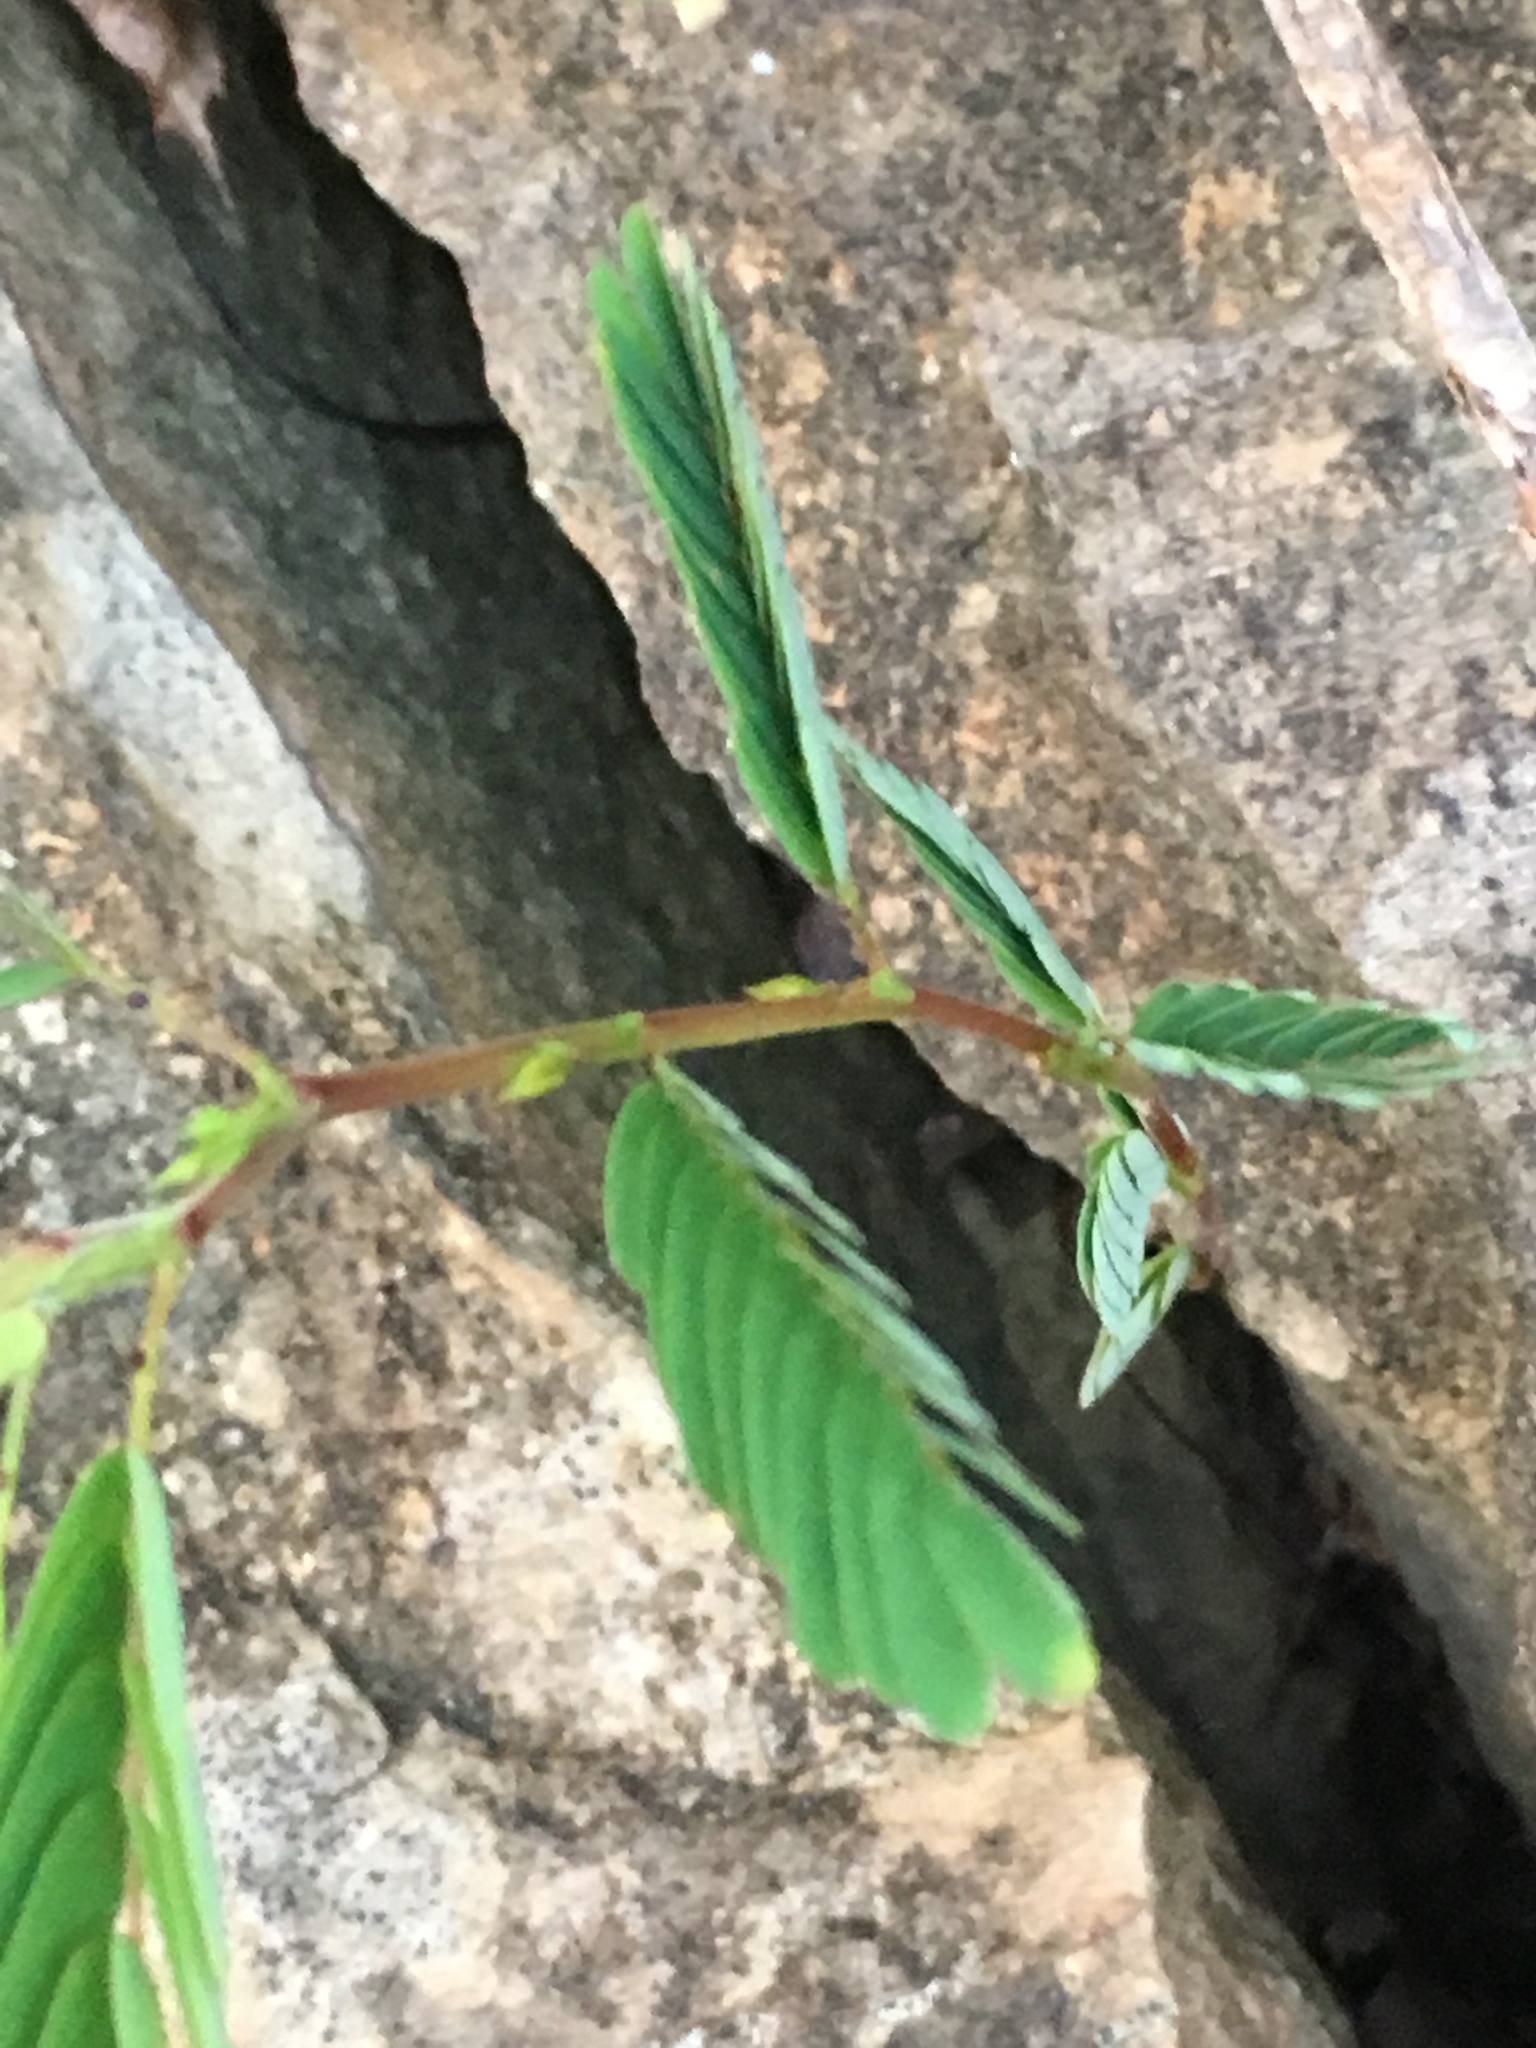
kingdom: Plantae
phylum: Tracheophyta
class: Magnoliopsida
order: Fabales
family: Fabaceae
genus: Chamaecrista
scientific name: Chamaecrista fasciculata
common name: Golden cassia
